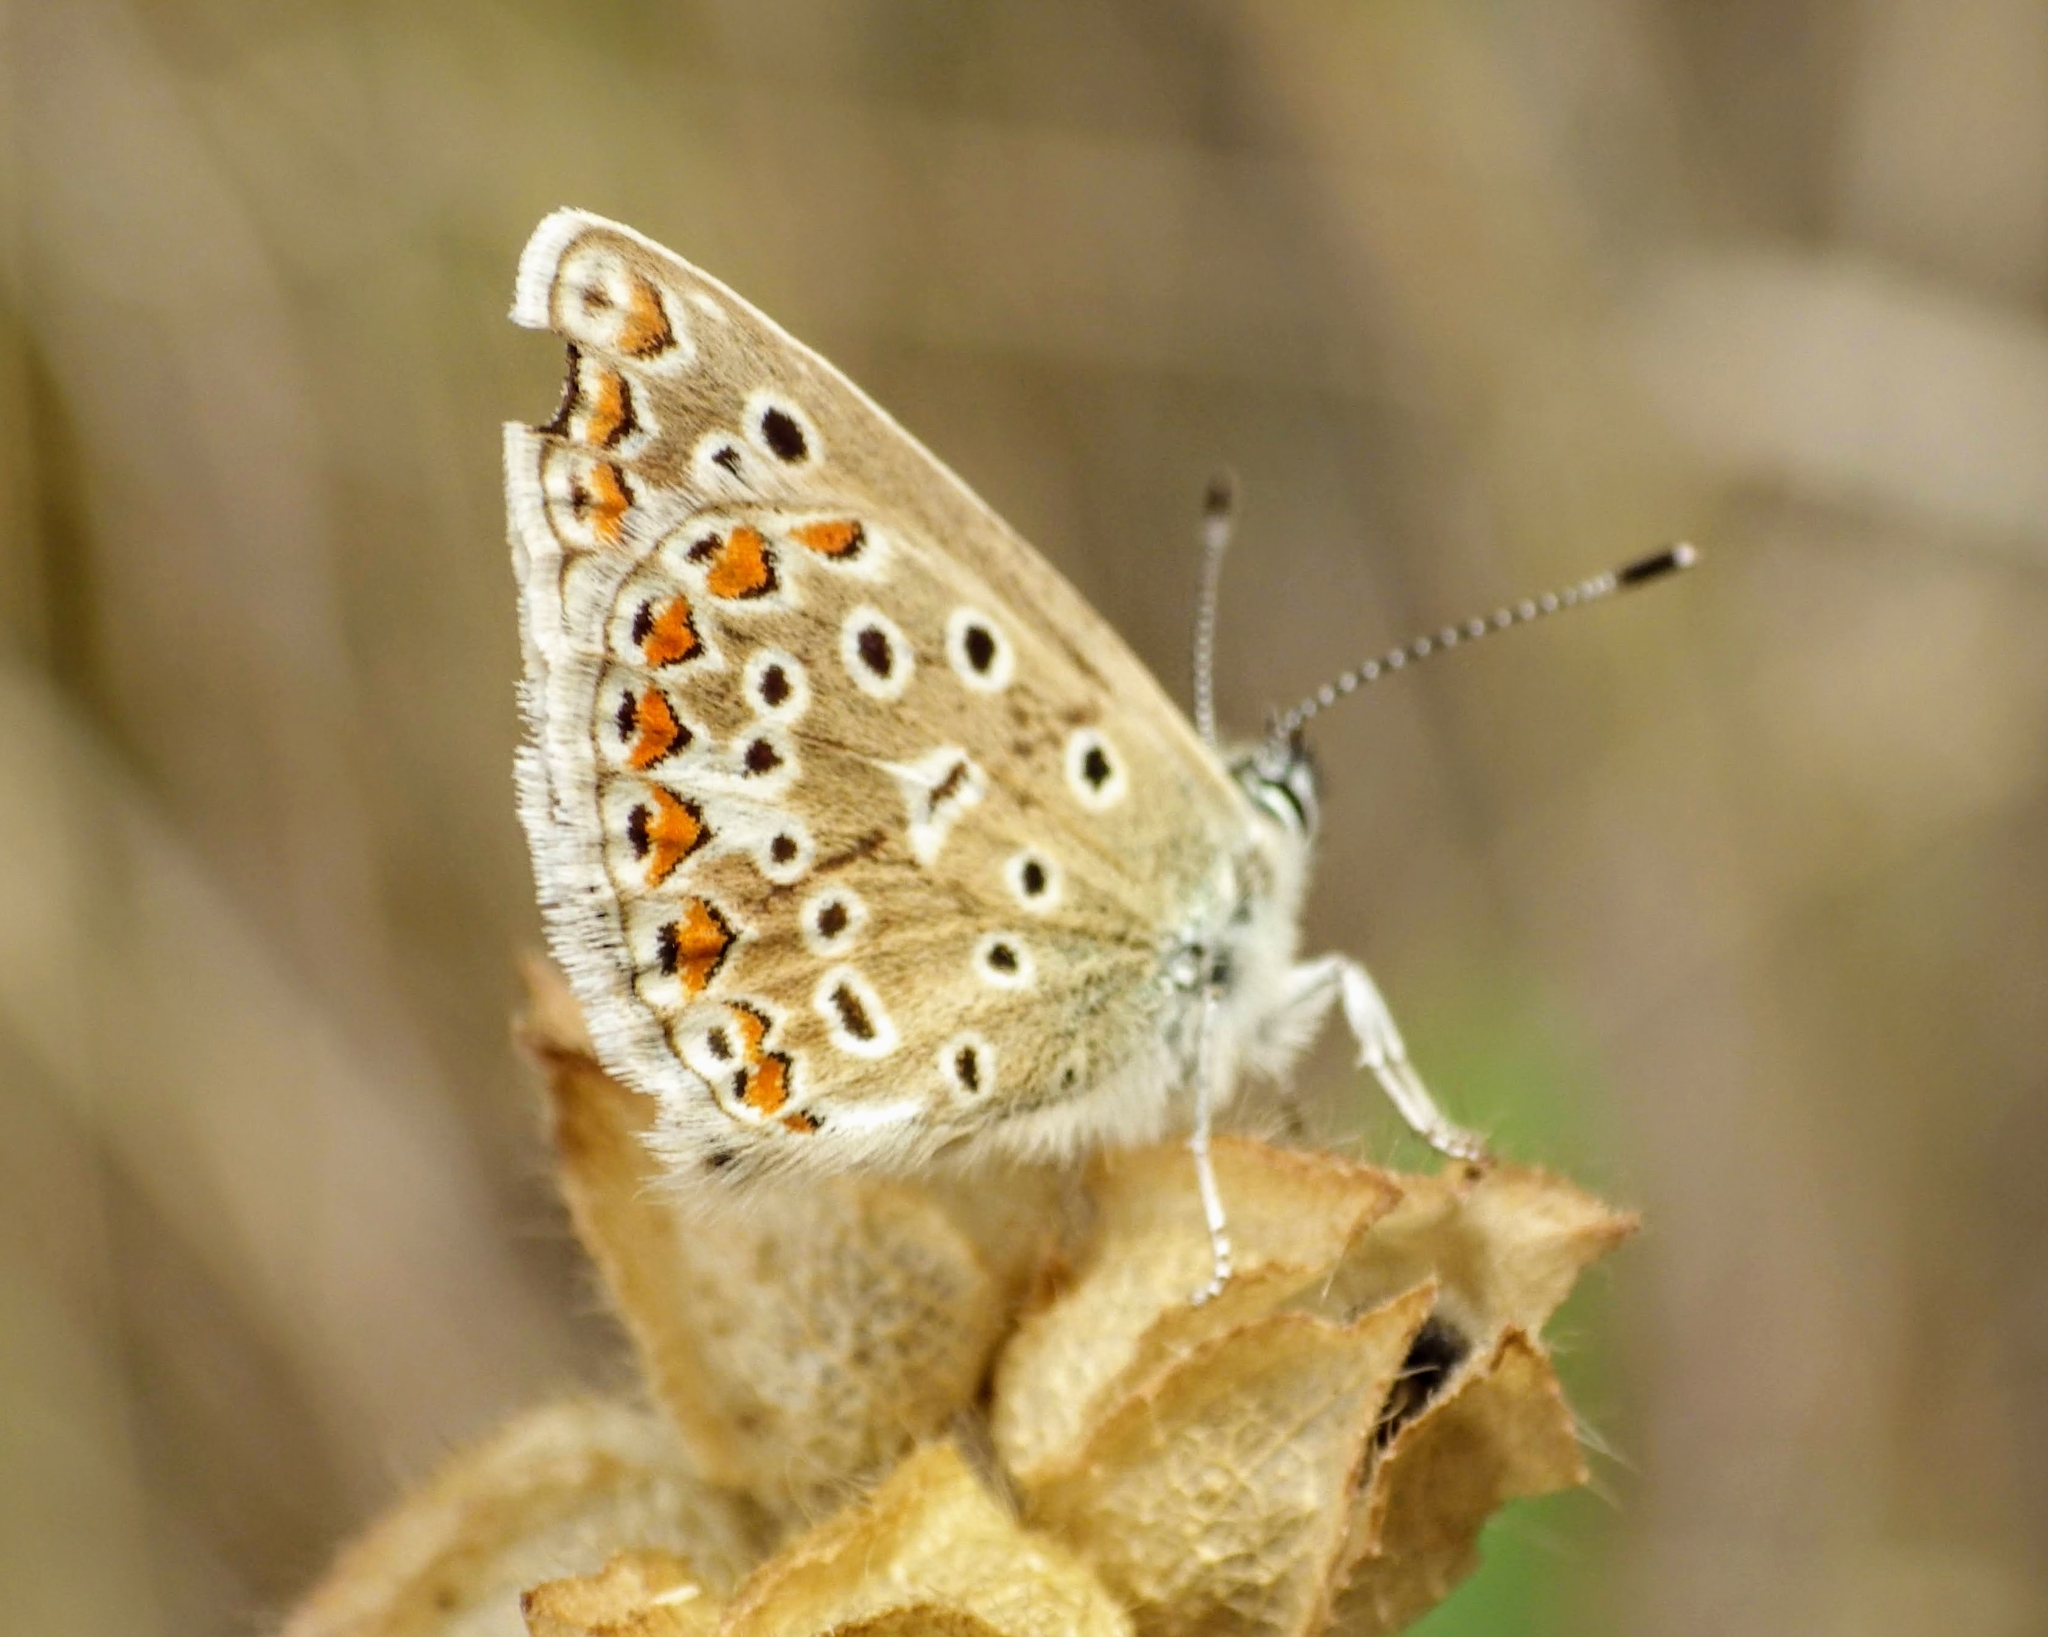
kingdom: Animalia
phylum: Arthropoda
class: Insecta
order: Lepidoptera
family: Lycaenidae
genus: Polyommatus
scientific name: Polyommatus icarus
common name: Common blue
